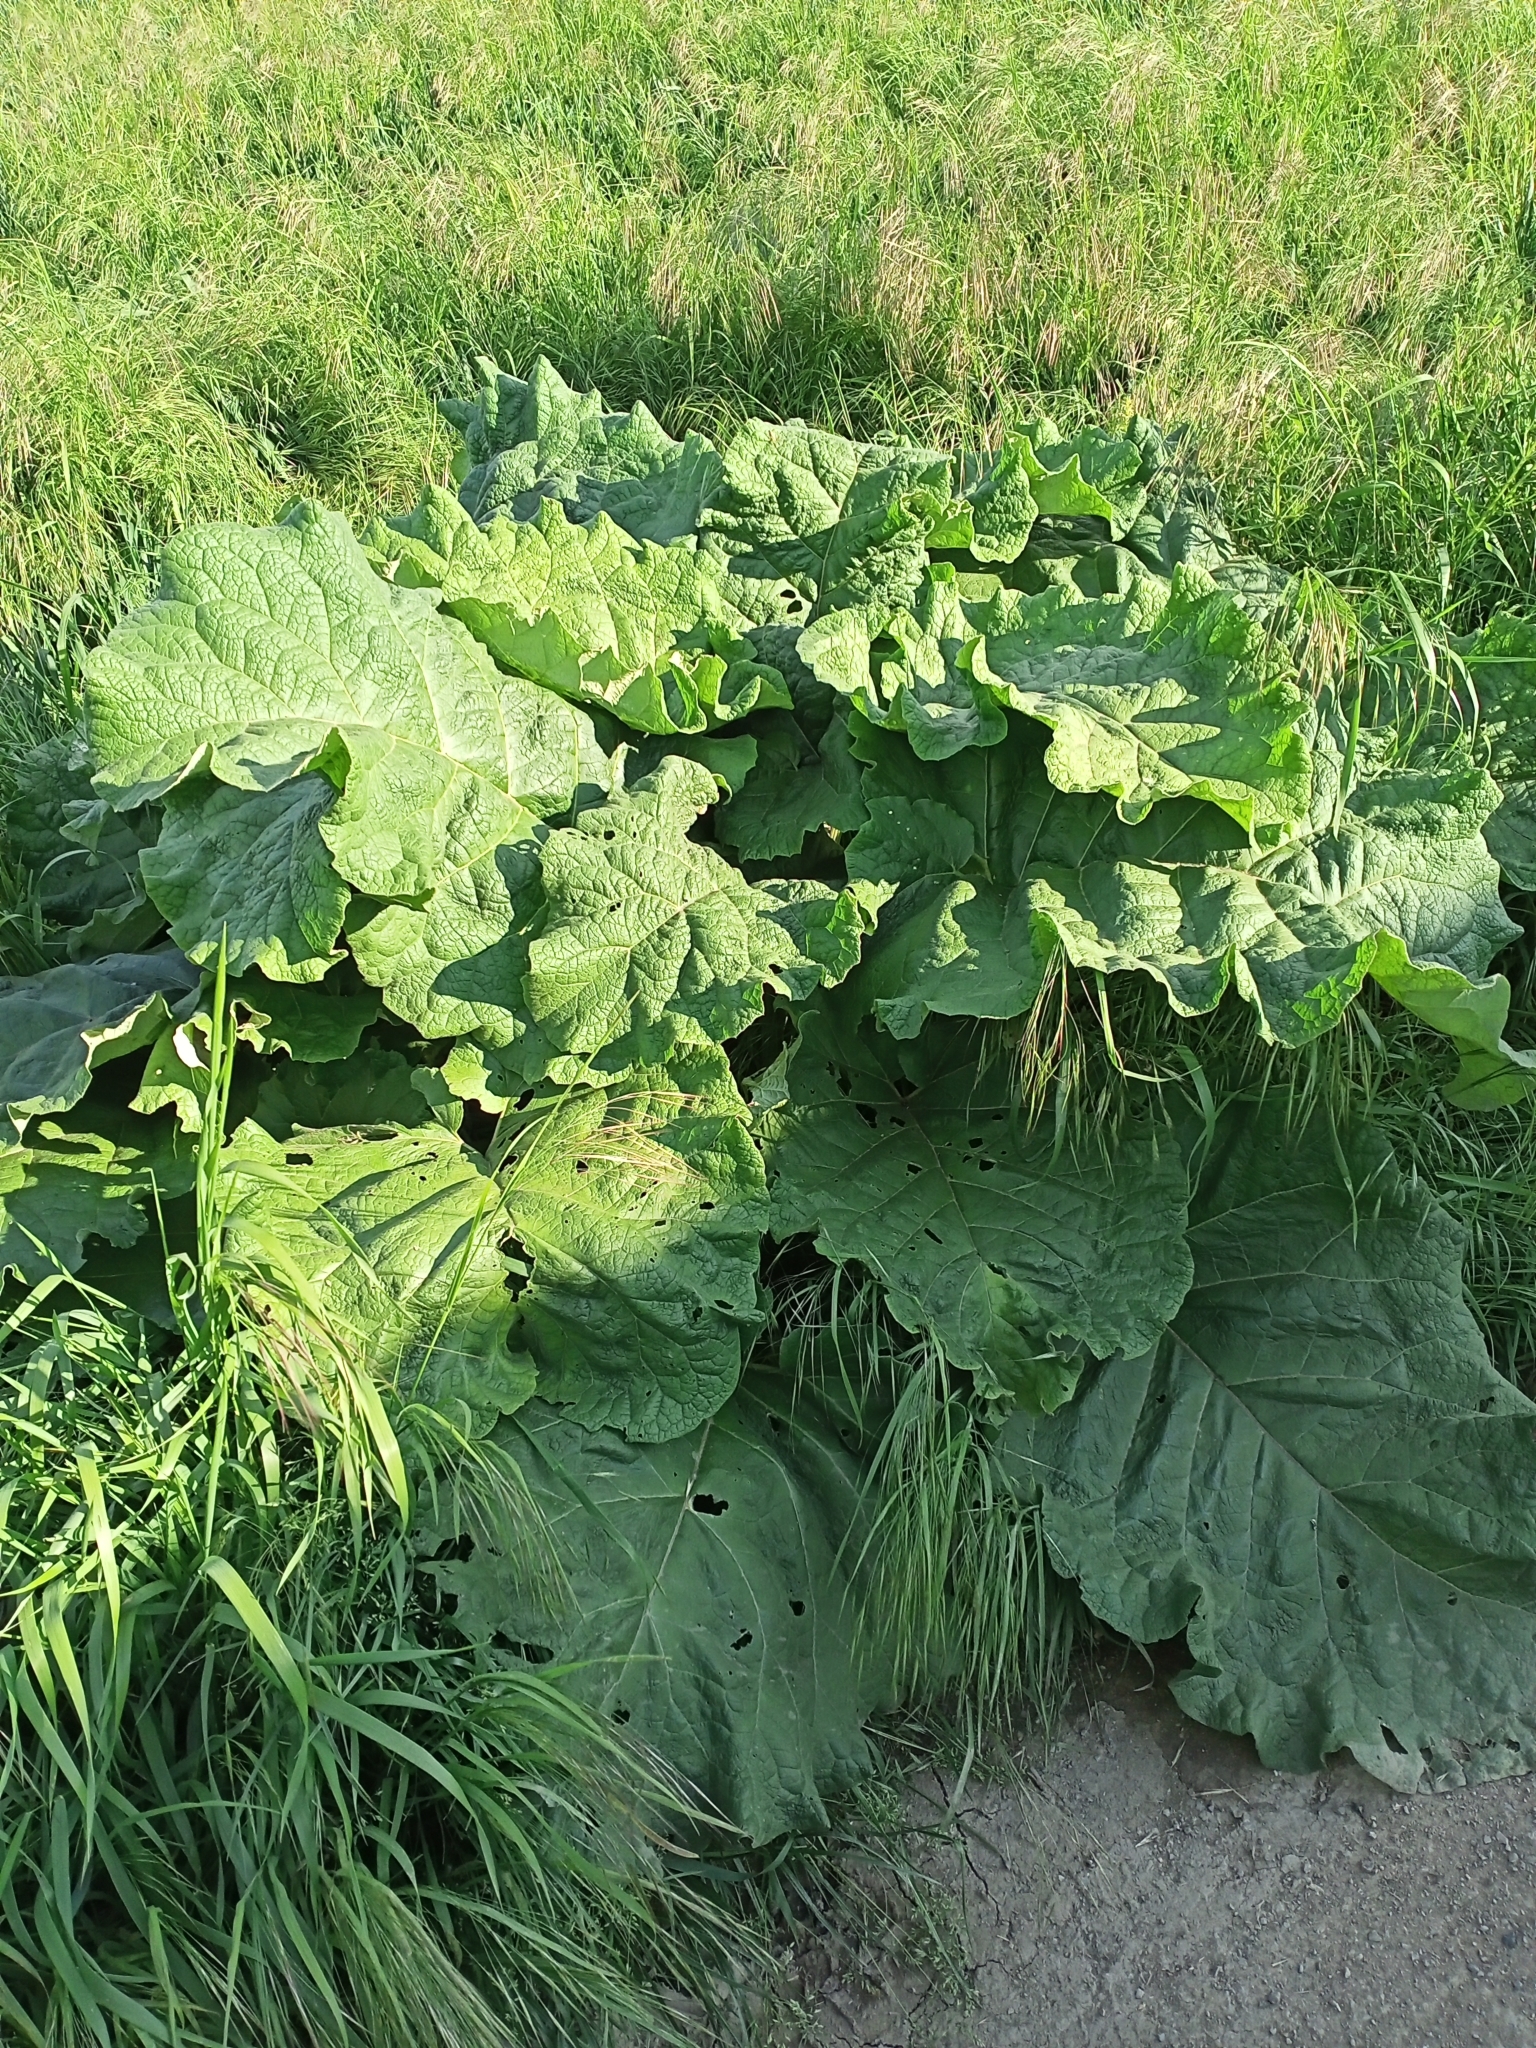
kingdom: Plantae
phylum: Tracheophyta
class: Magnoliopsida
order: Asterales
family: Asteraceae
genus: Arctium
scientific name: Arctium
